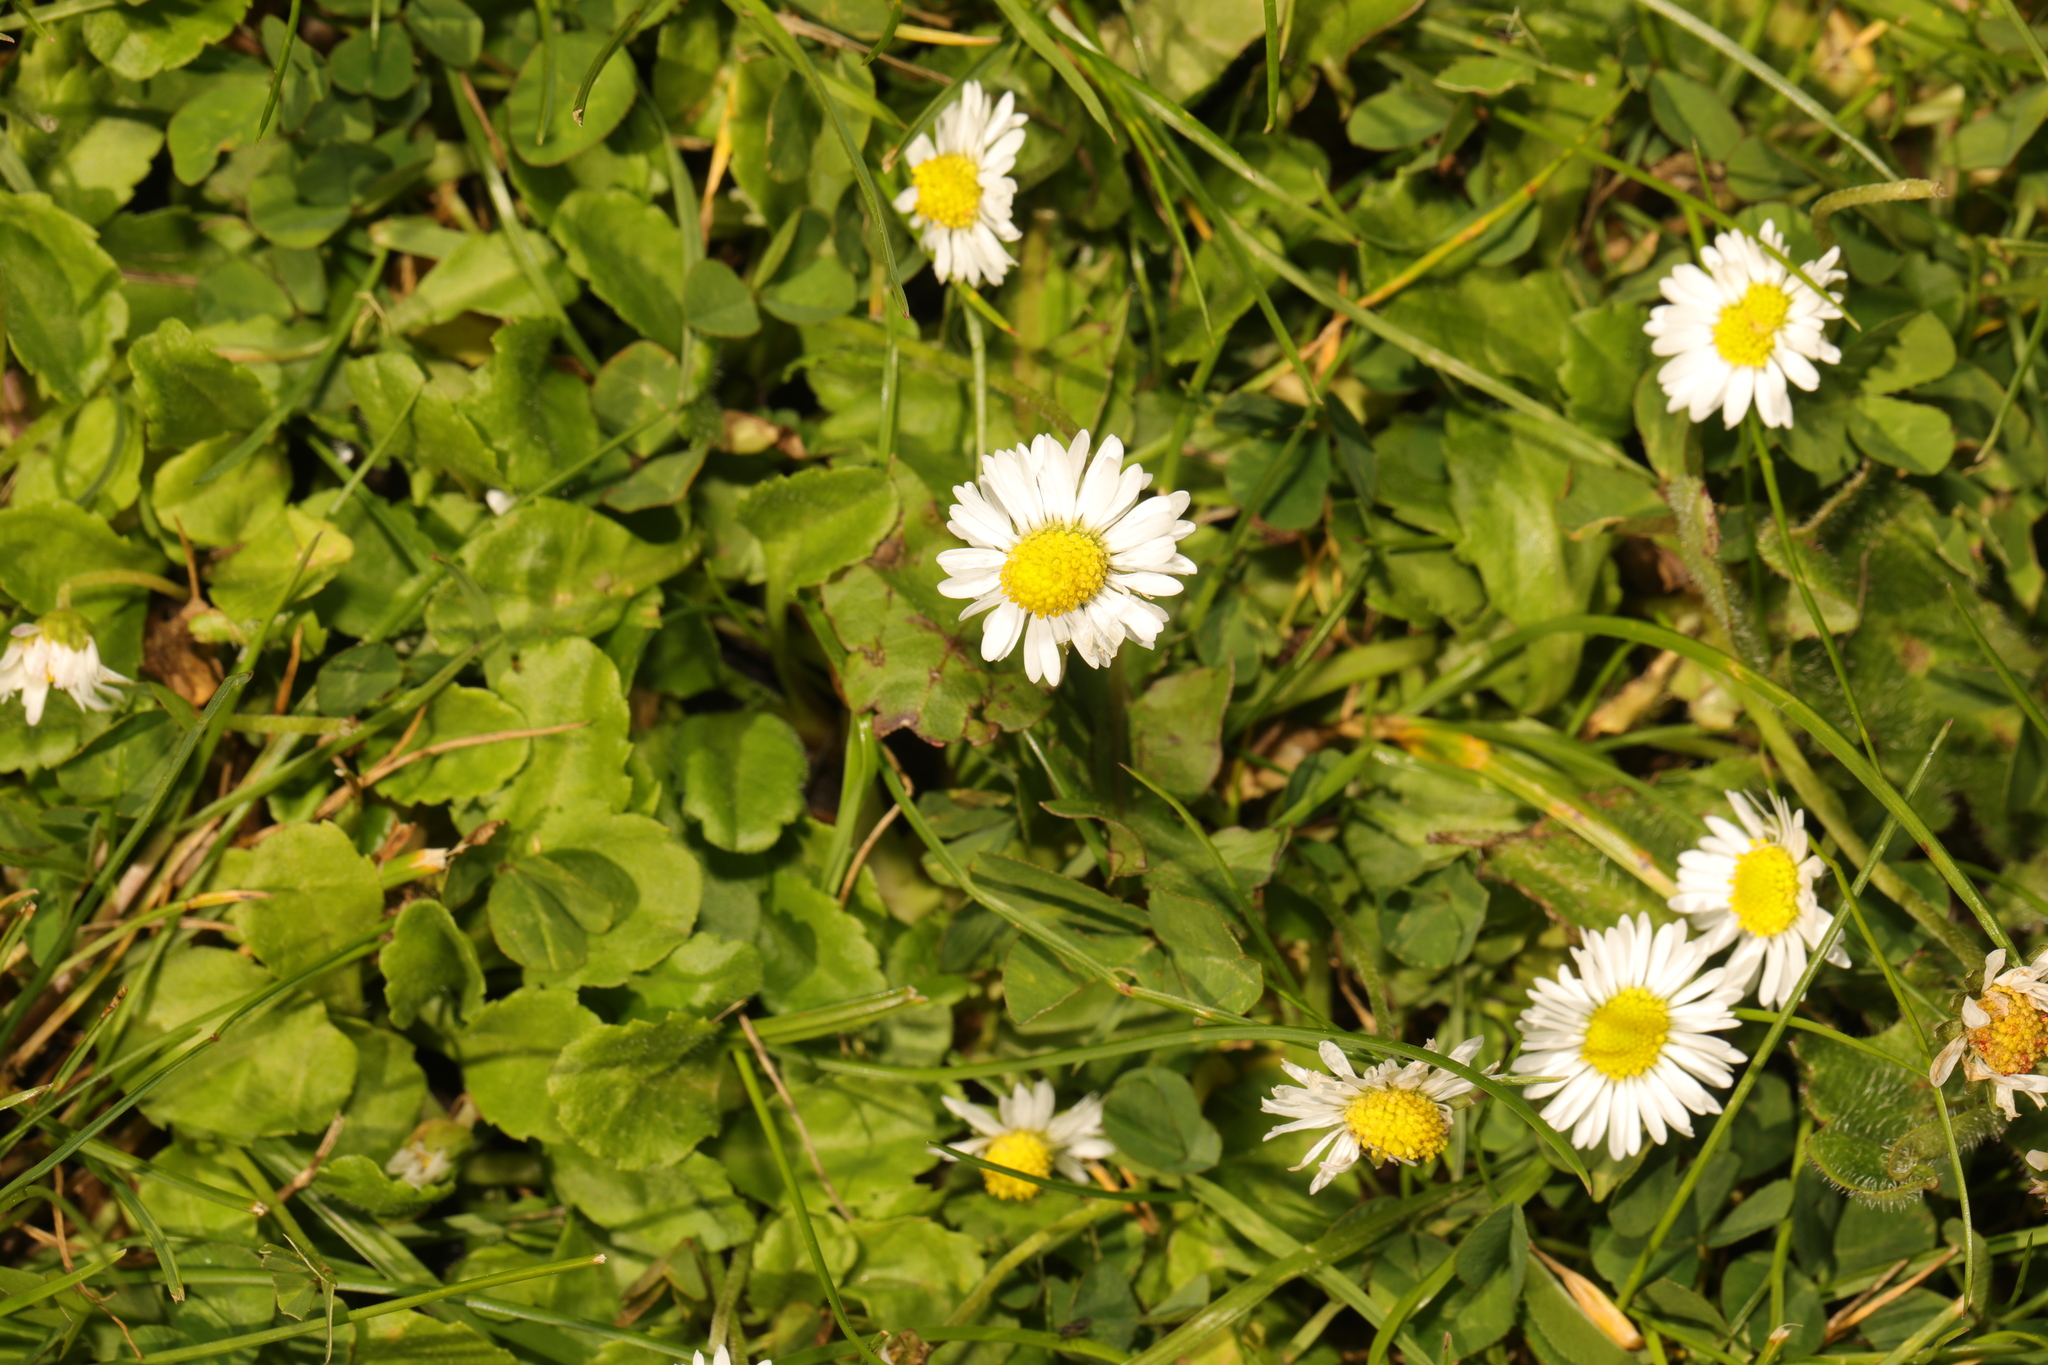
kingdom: Plantae
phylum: Tracheophyta
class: Magnoliopsida
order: Asterales
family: Asteraceae
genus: Bellis
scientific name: Bellis perennis
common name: Lawndaisy
